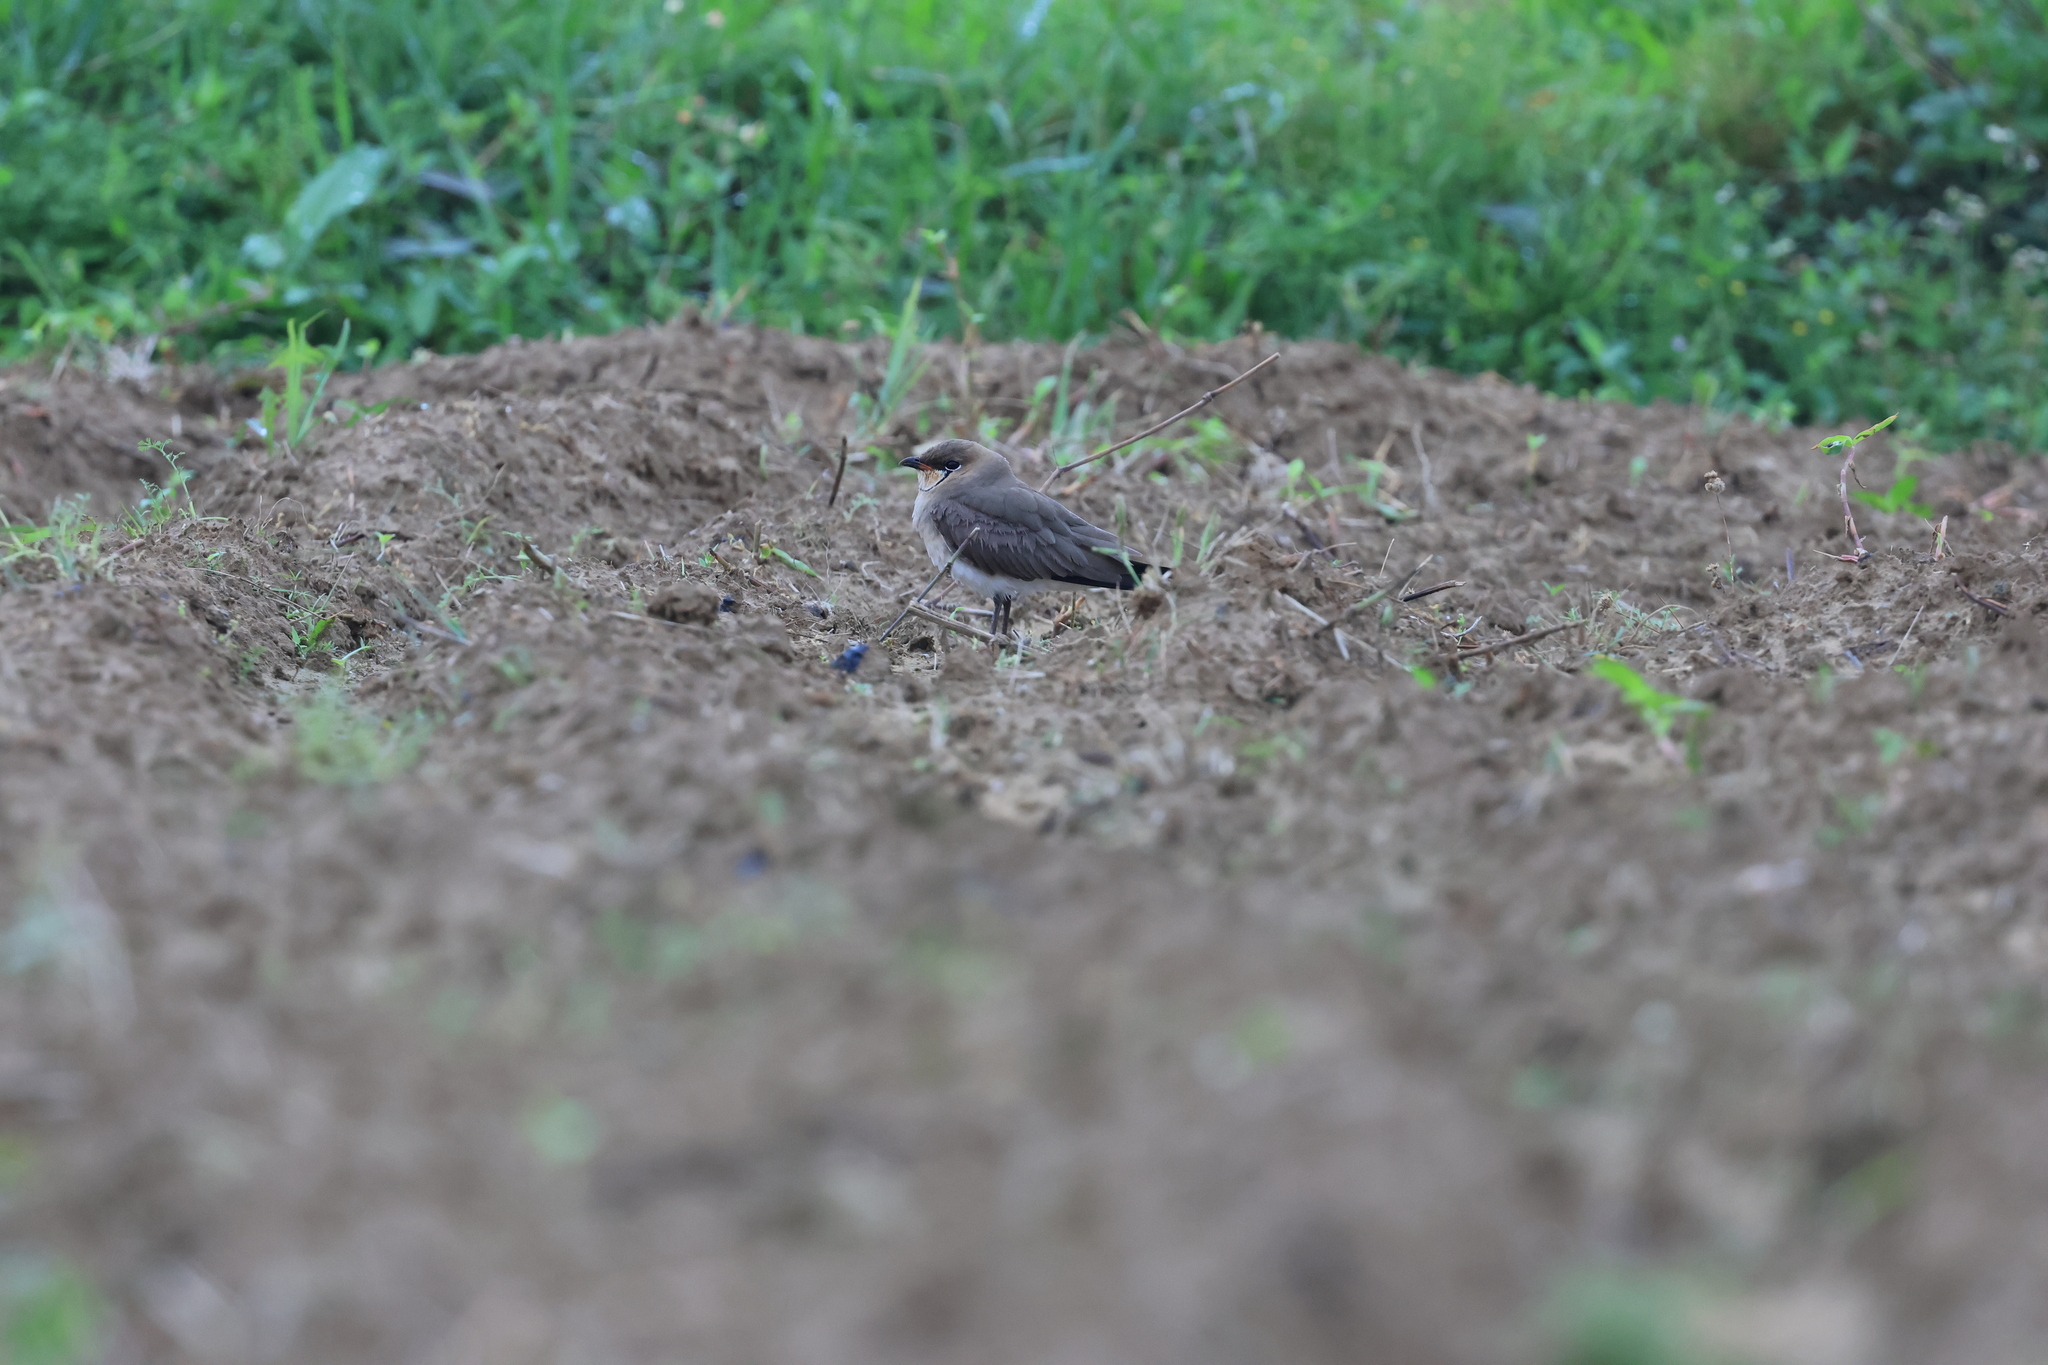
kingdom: Animalia
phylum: Chordata
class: Aves
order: Charadriiformes
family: Glareolidae
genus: Glareola
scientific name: Glareola maldivarum
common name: Oriental pratincole
